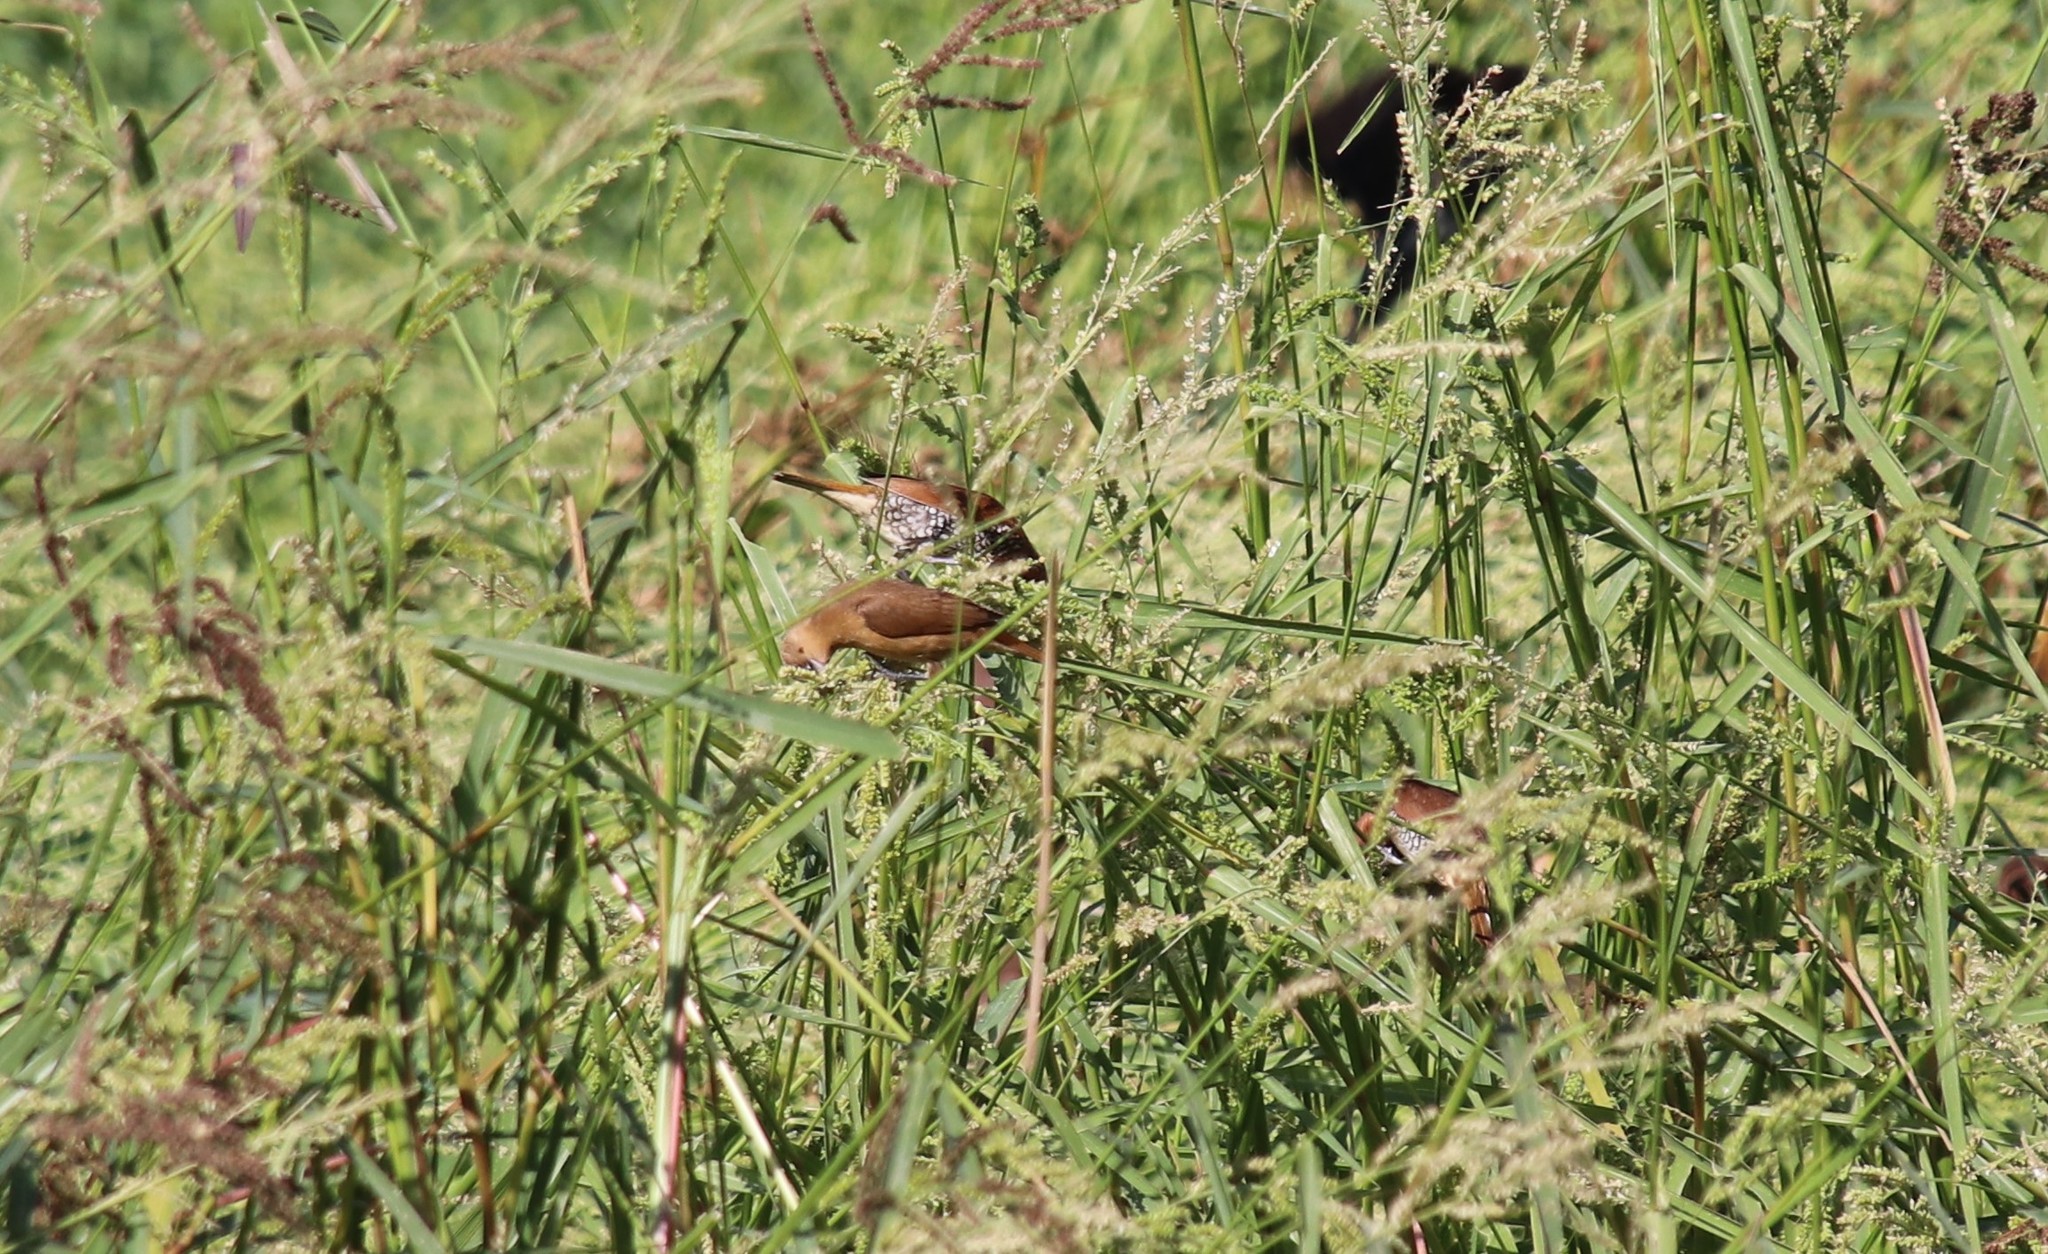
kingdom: Animalia
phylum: Chordata
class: Aves
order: Passeriformes
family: Estrildidae
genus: Lonchura
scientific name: Lonchura punctulata
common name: Scaly-breasted munia
